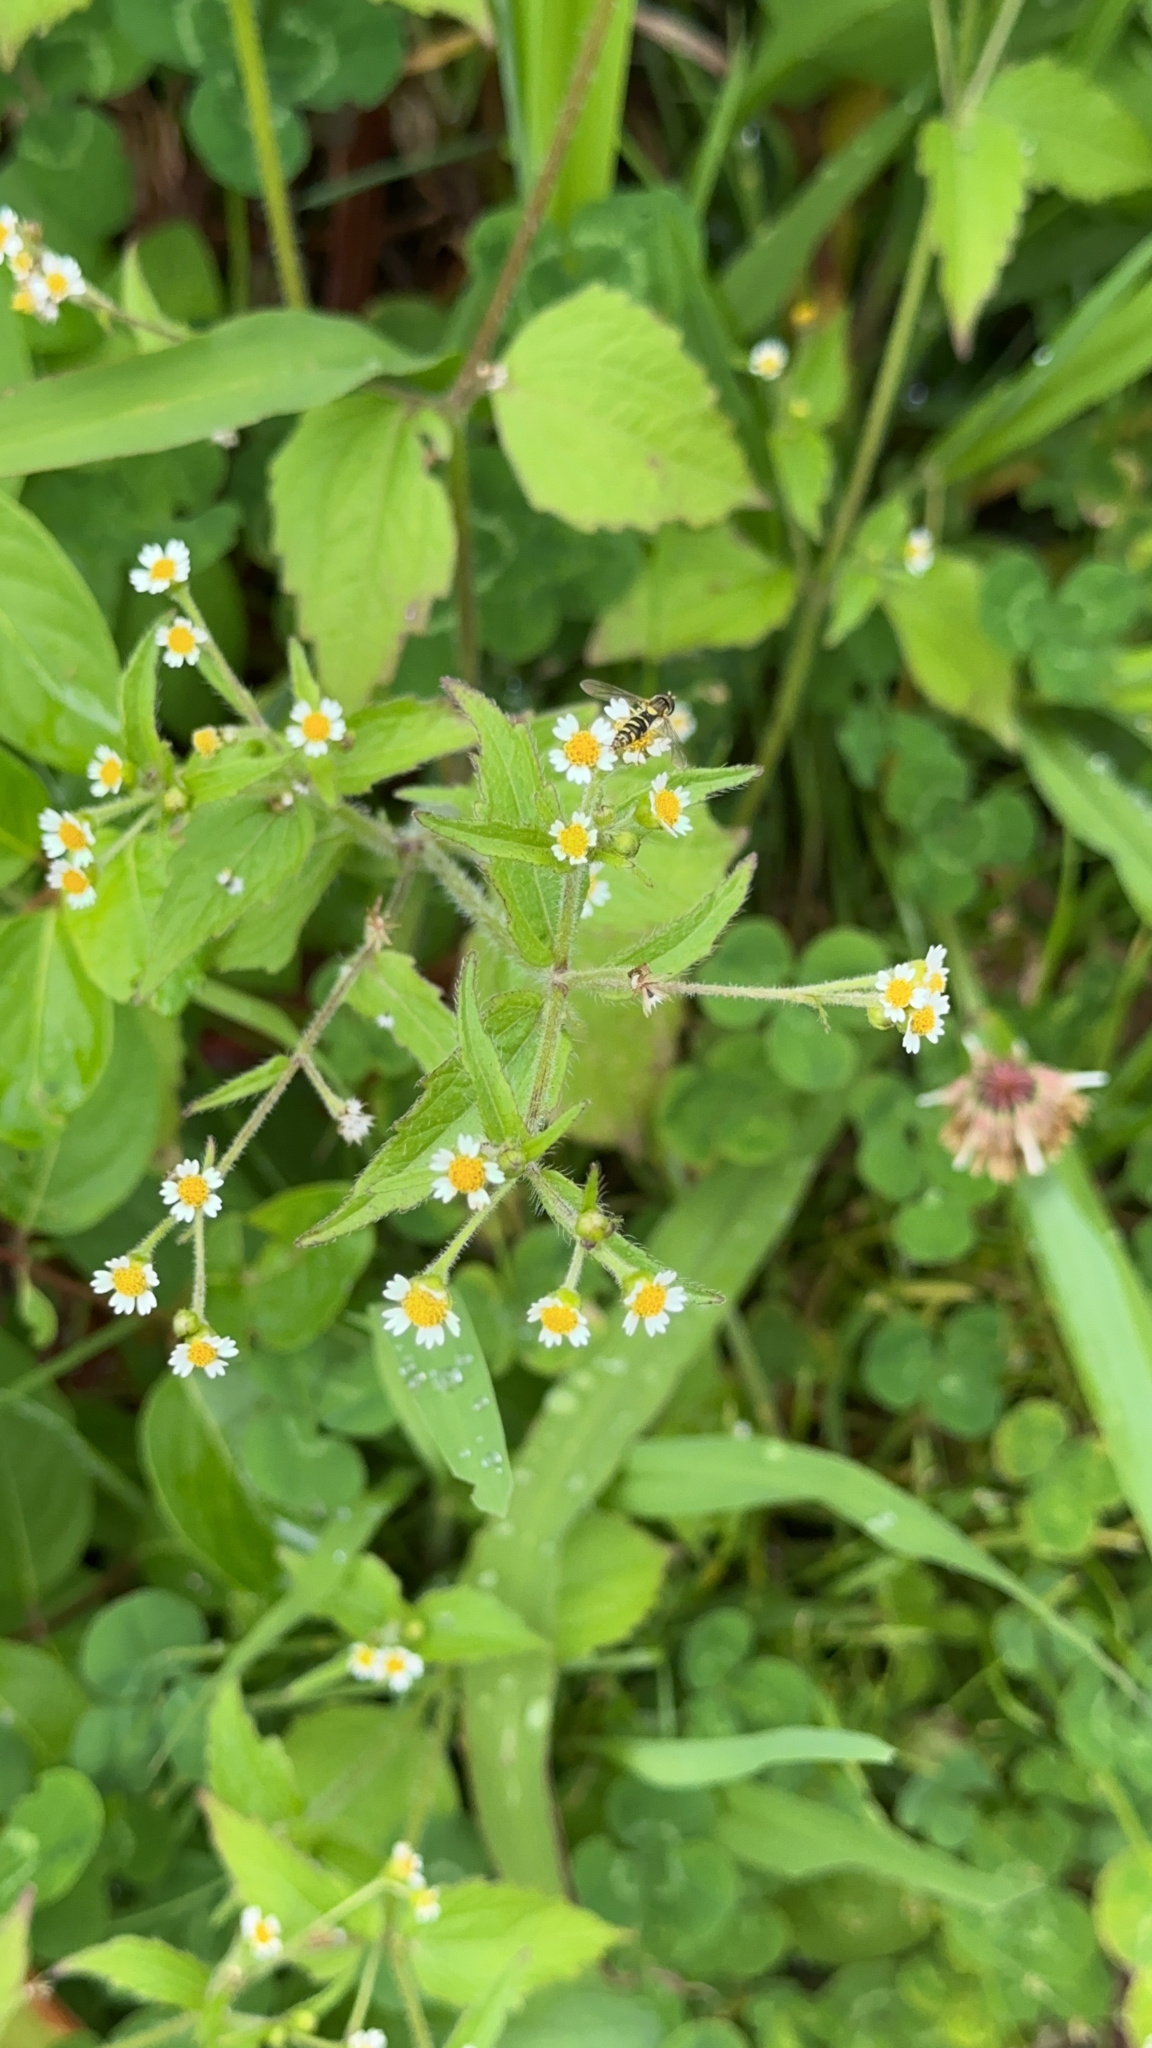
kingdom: Plantae
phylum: Tracheophyta
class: Magnoliopsida
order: Asterales
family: Asteraceae
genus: Galinsoga
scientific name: Galinsoga quadriradiata
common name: Shaggy soldier
